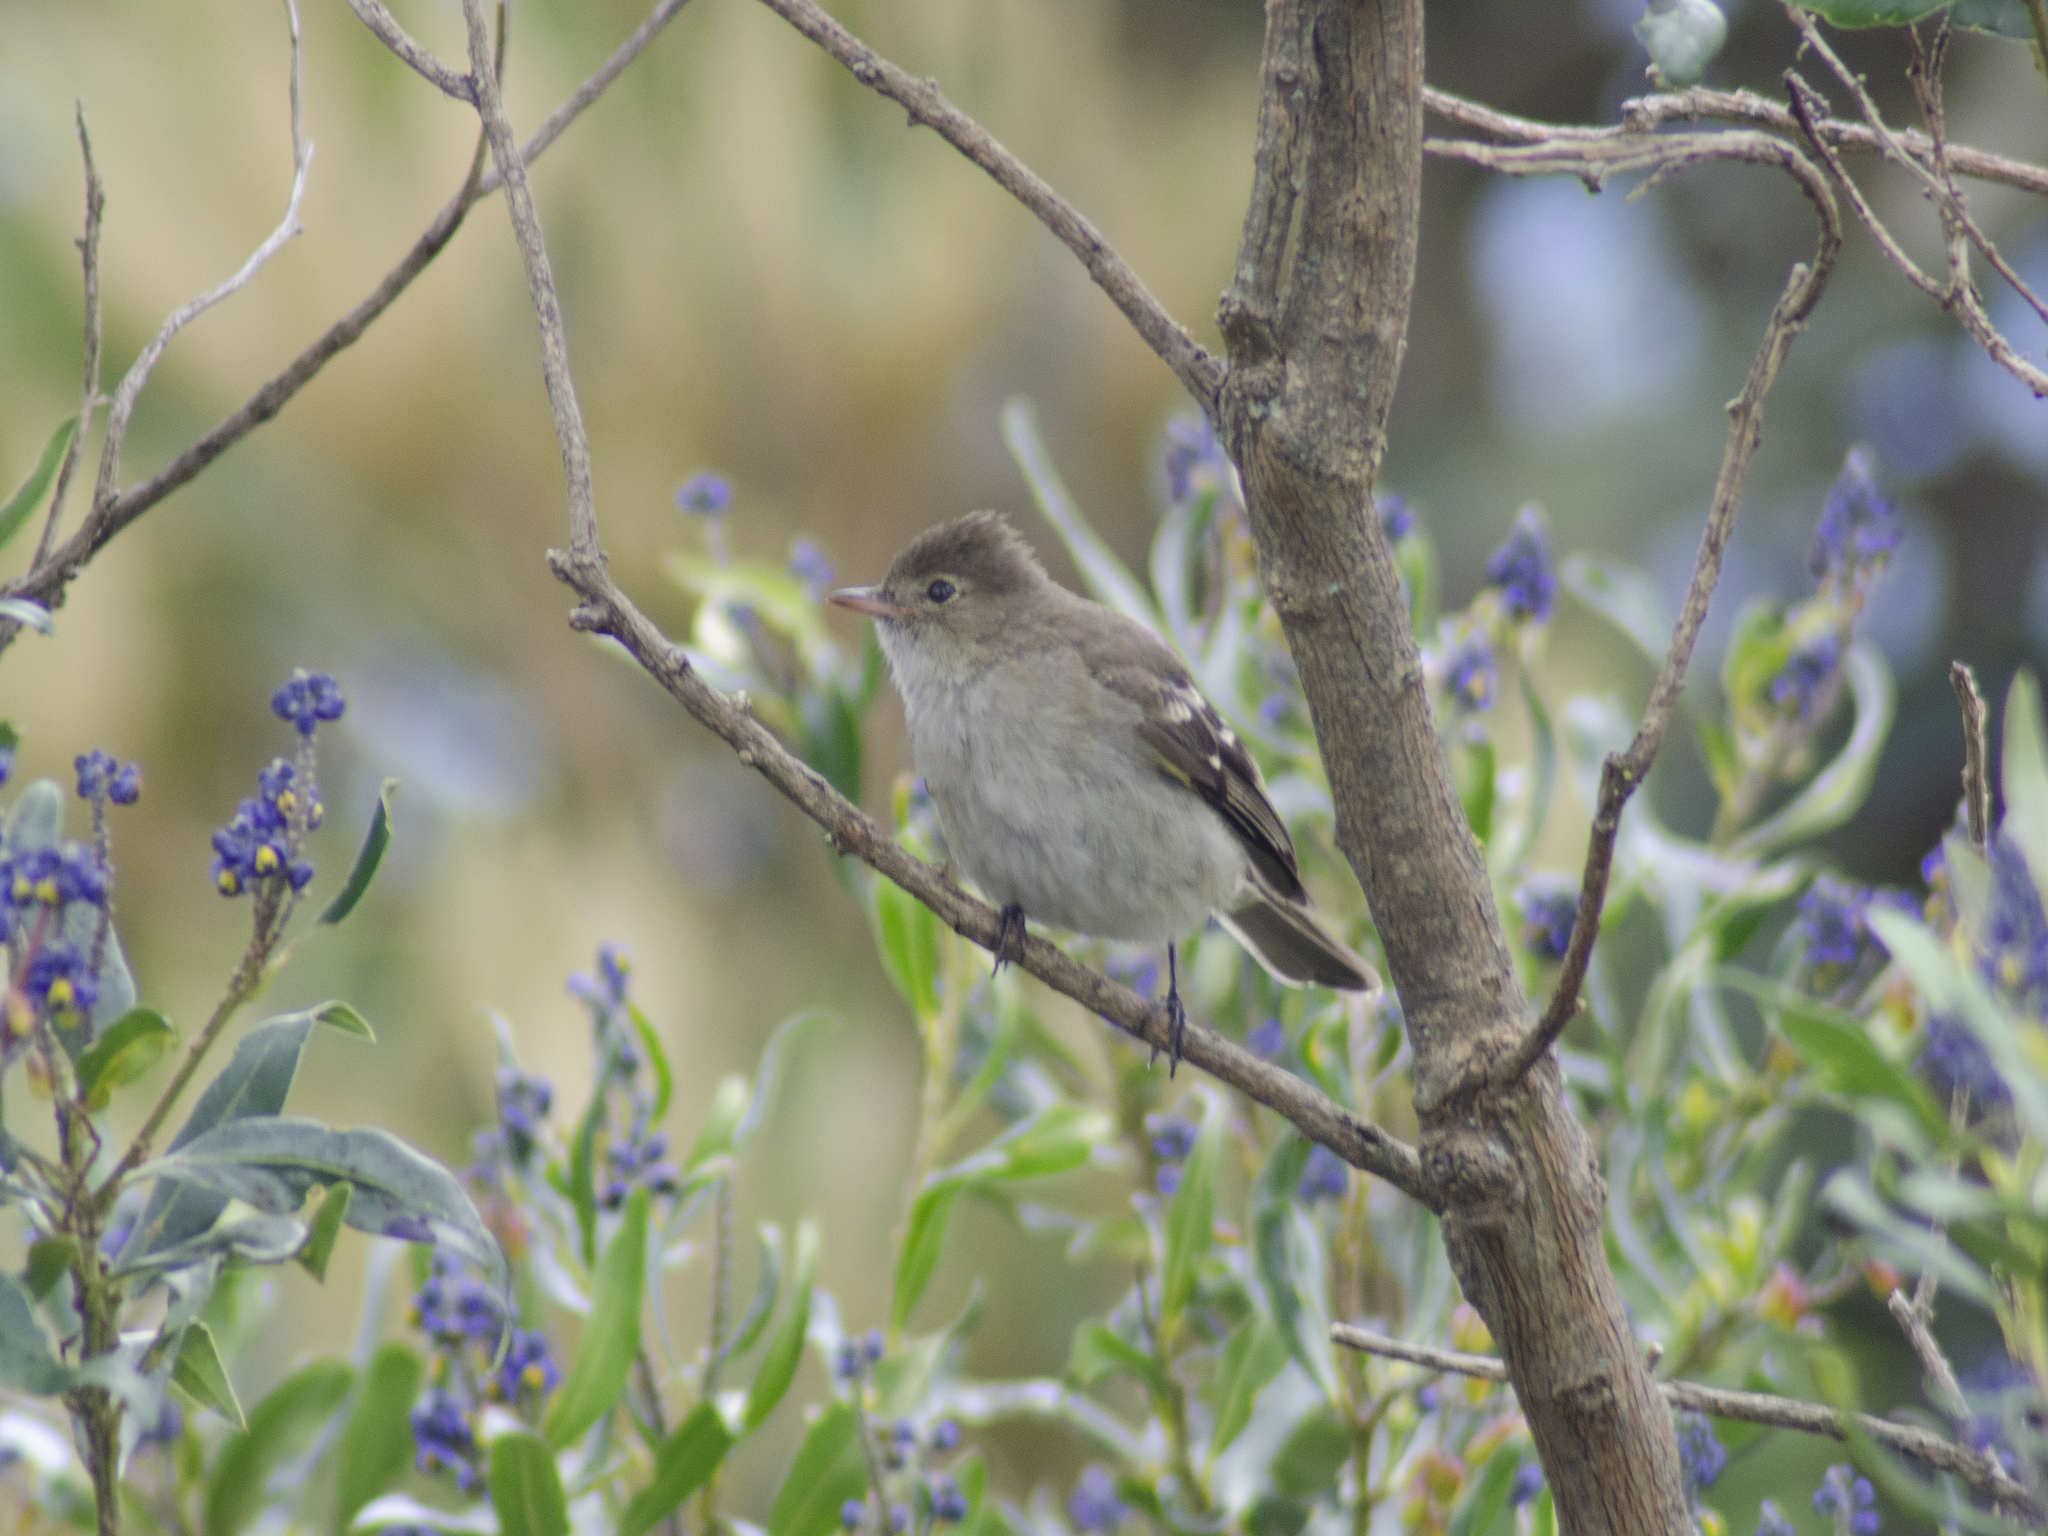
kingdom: Animalia
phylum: Chordata
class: Aves
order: Passeriformes
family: Tyrannidae
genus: Elaenia
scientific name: Elaenia albiceps
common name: White-crested elaenia
